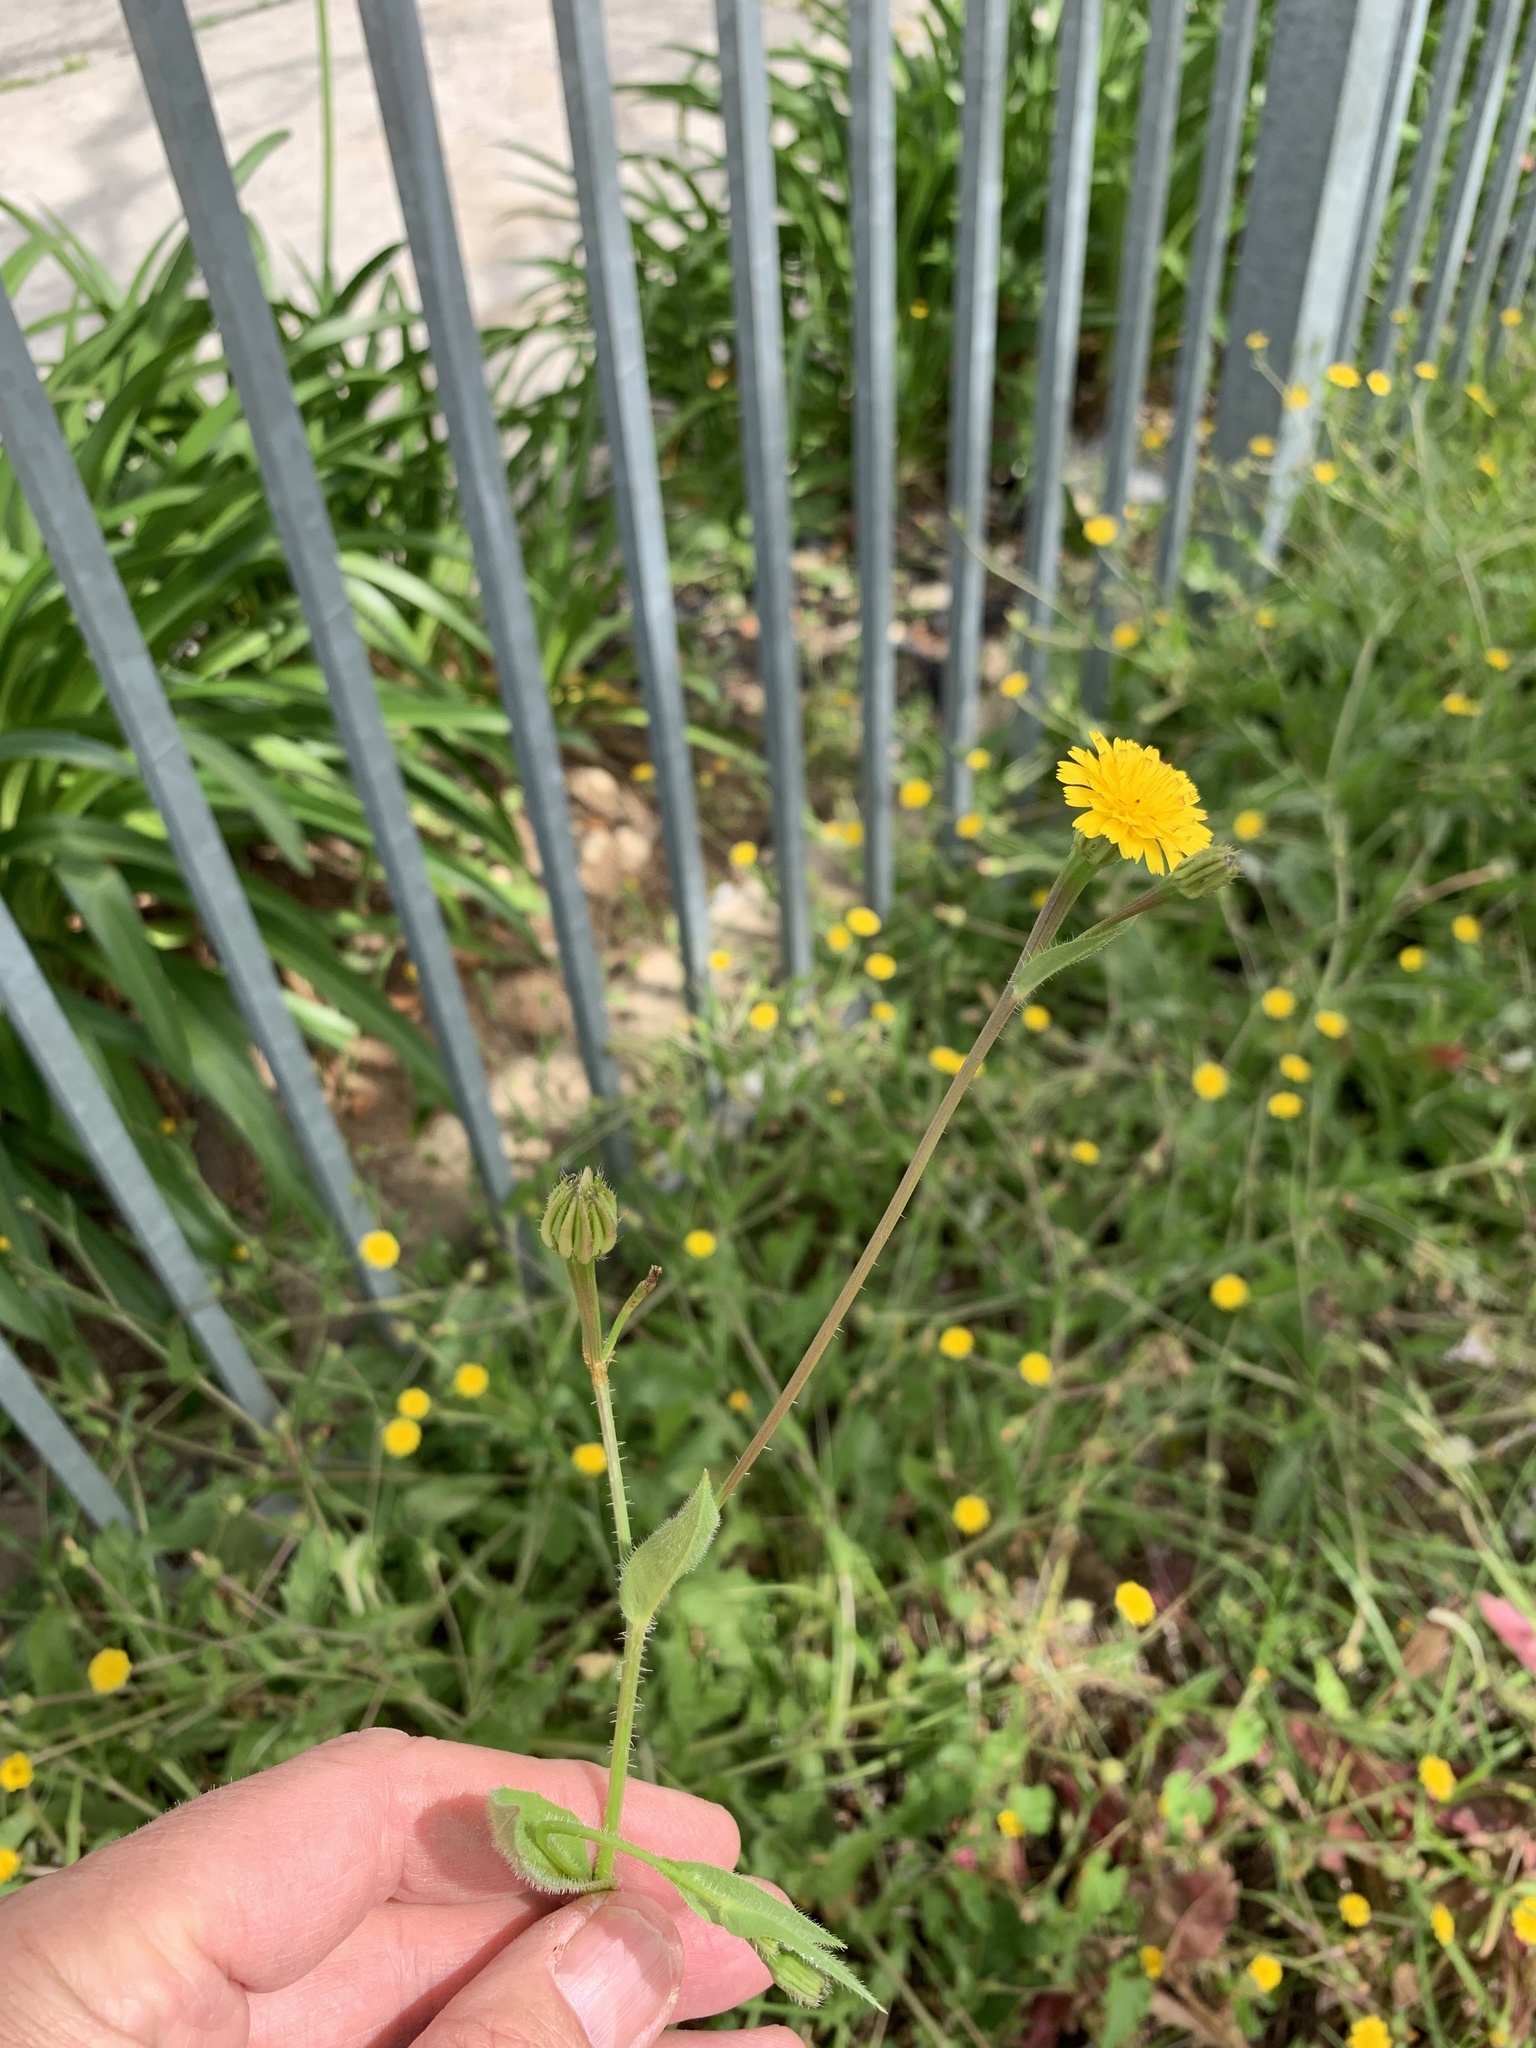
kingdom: Plantae
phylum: Tracheophyta
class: Magnoliopsida
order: Asterales
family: Asteraceae
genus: Hedypnois
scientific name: Hedypnois rhagadioloides
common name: Cretan weed
